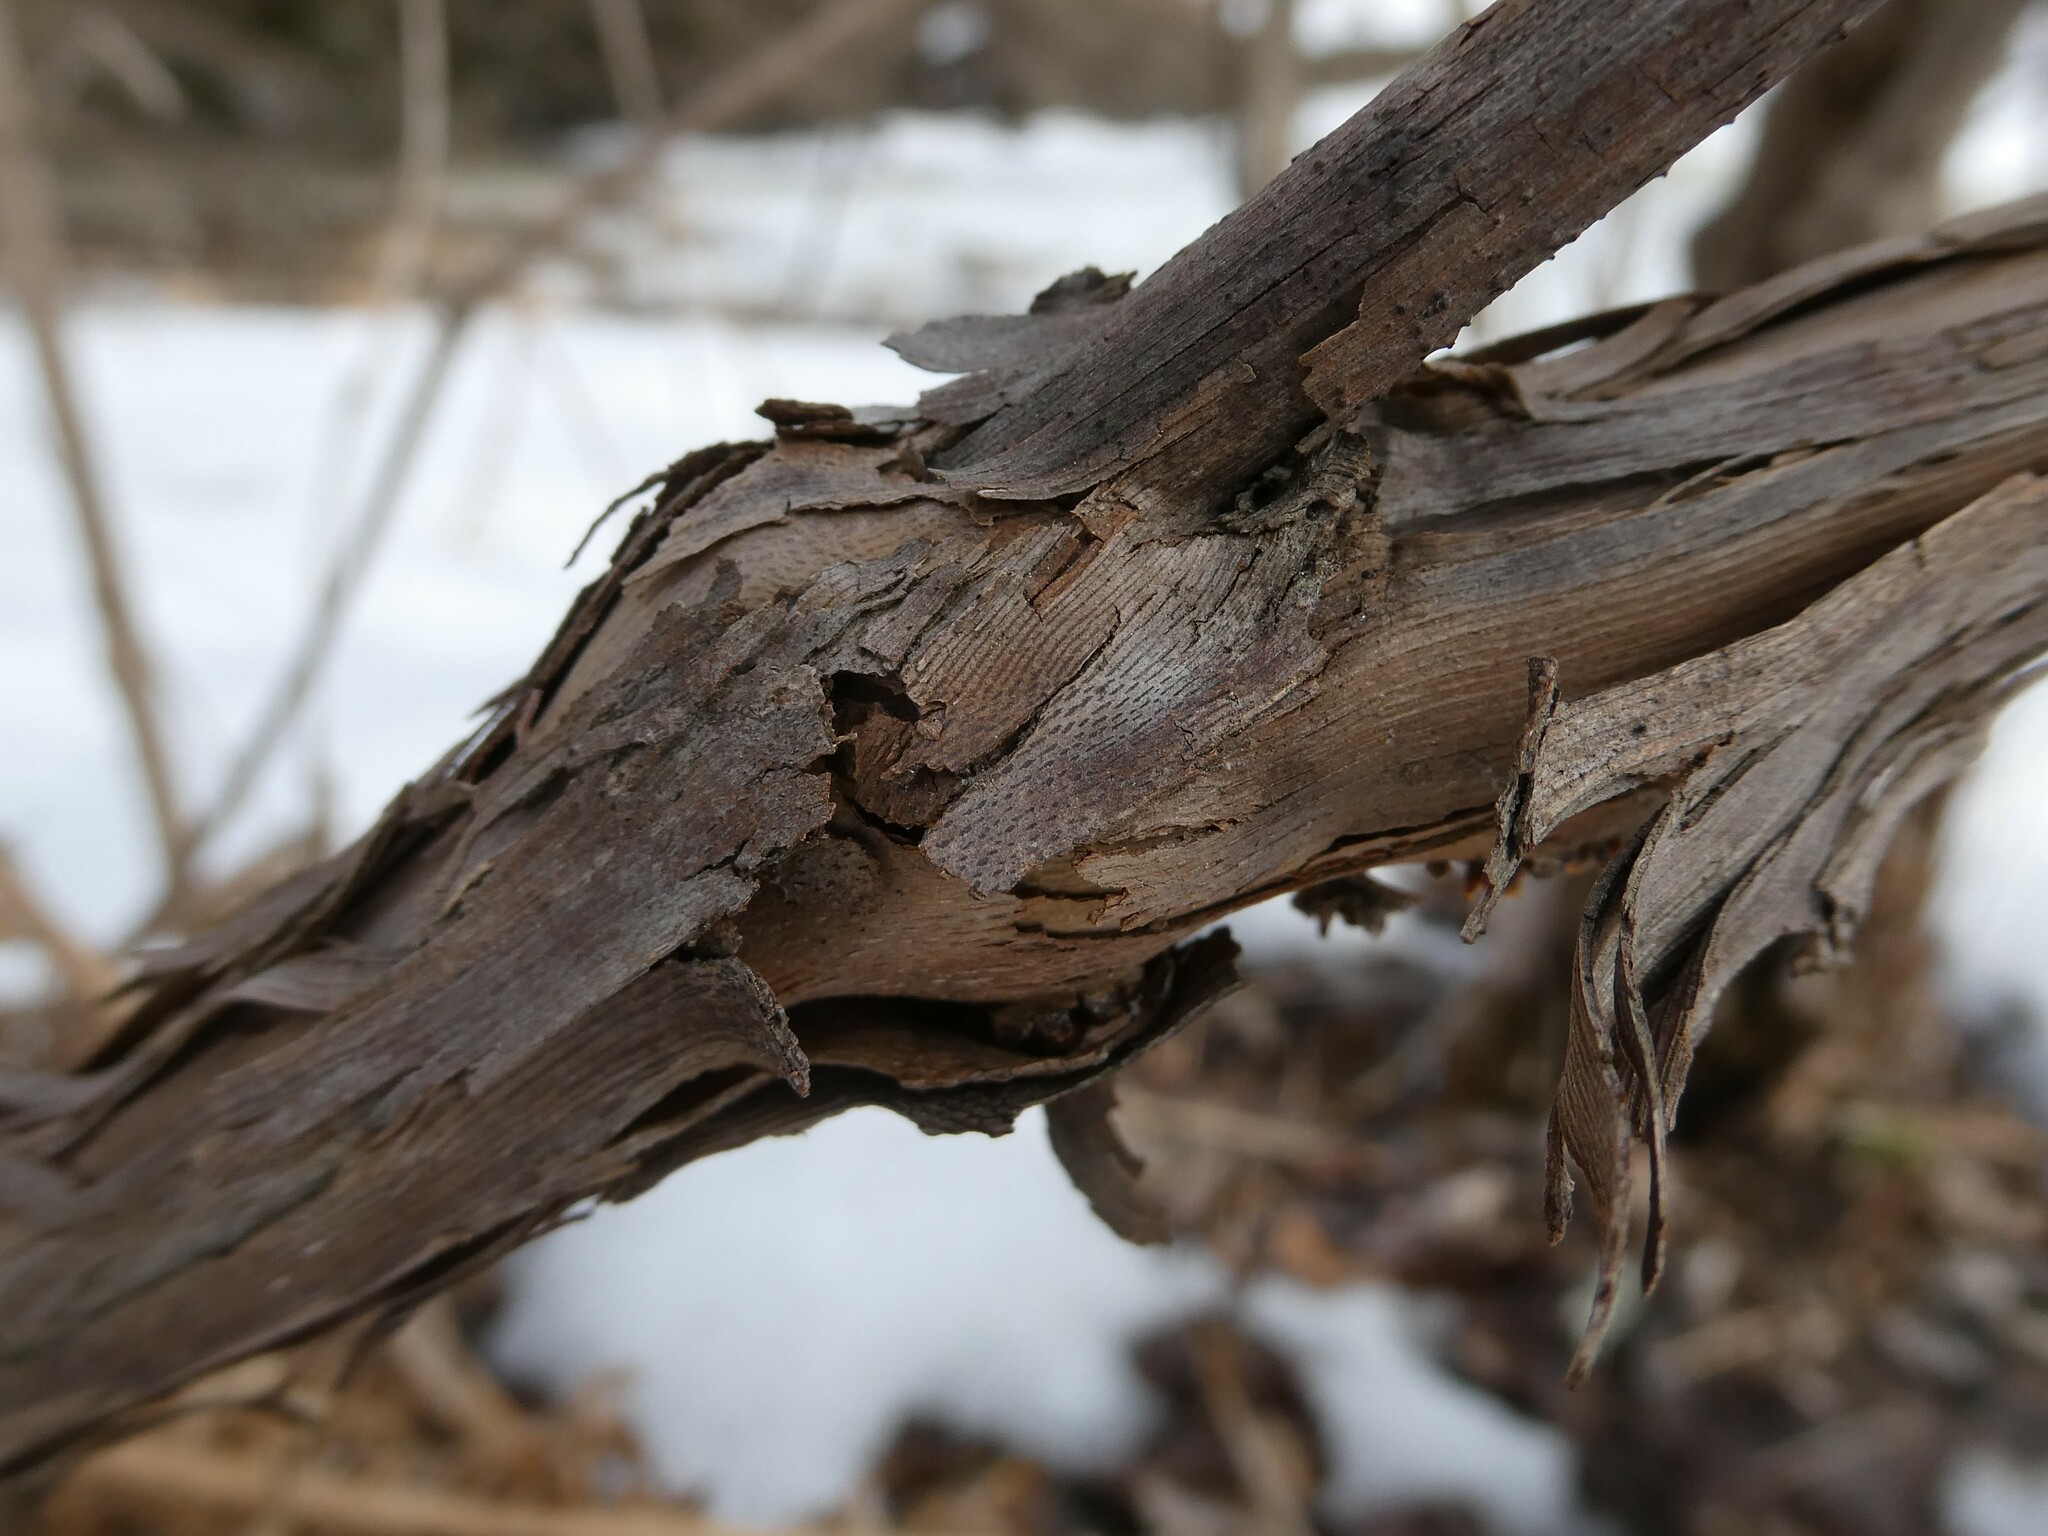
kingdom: Plantae
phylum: Tracheophyta
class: Magnoliopsida
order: Vitales
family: Vitaceae
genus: Vitis
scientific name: Vitis
